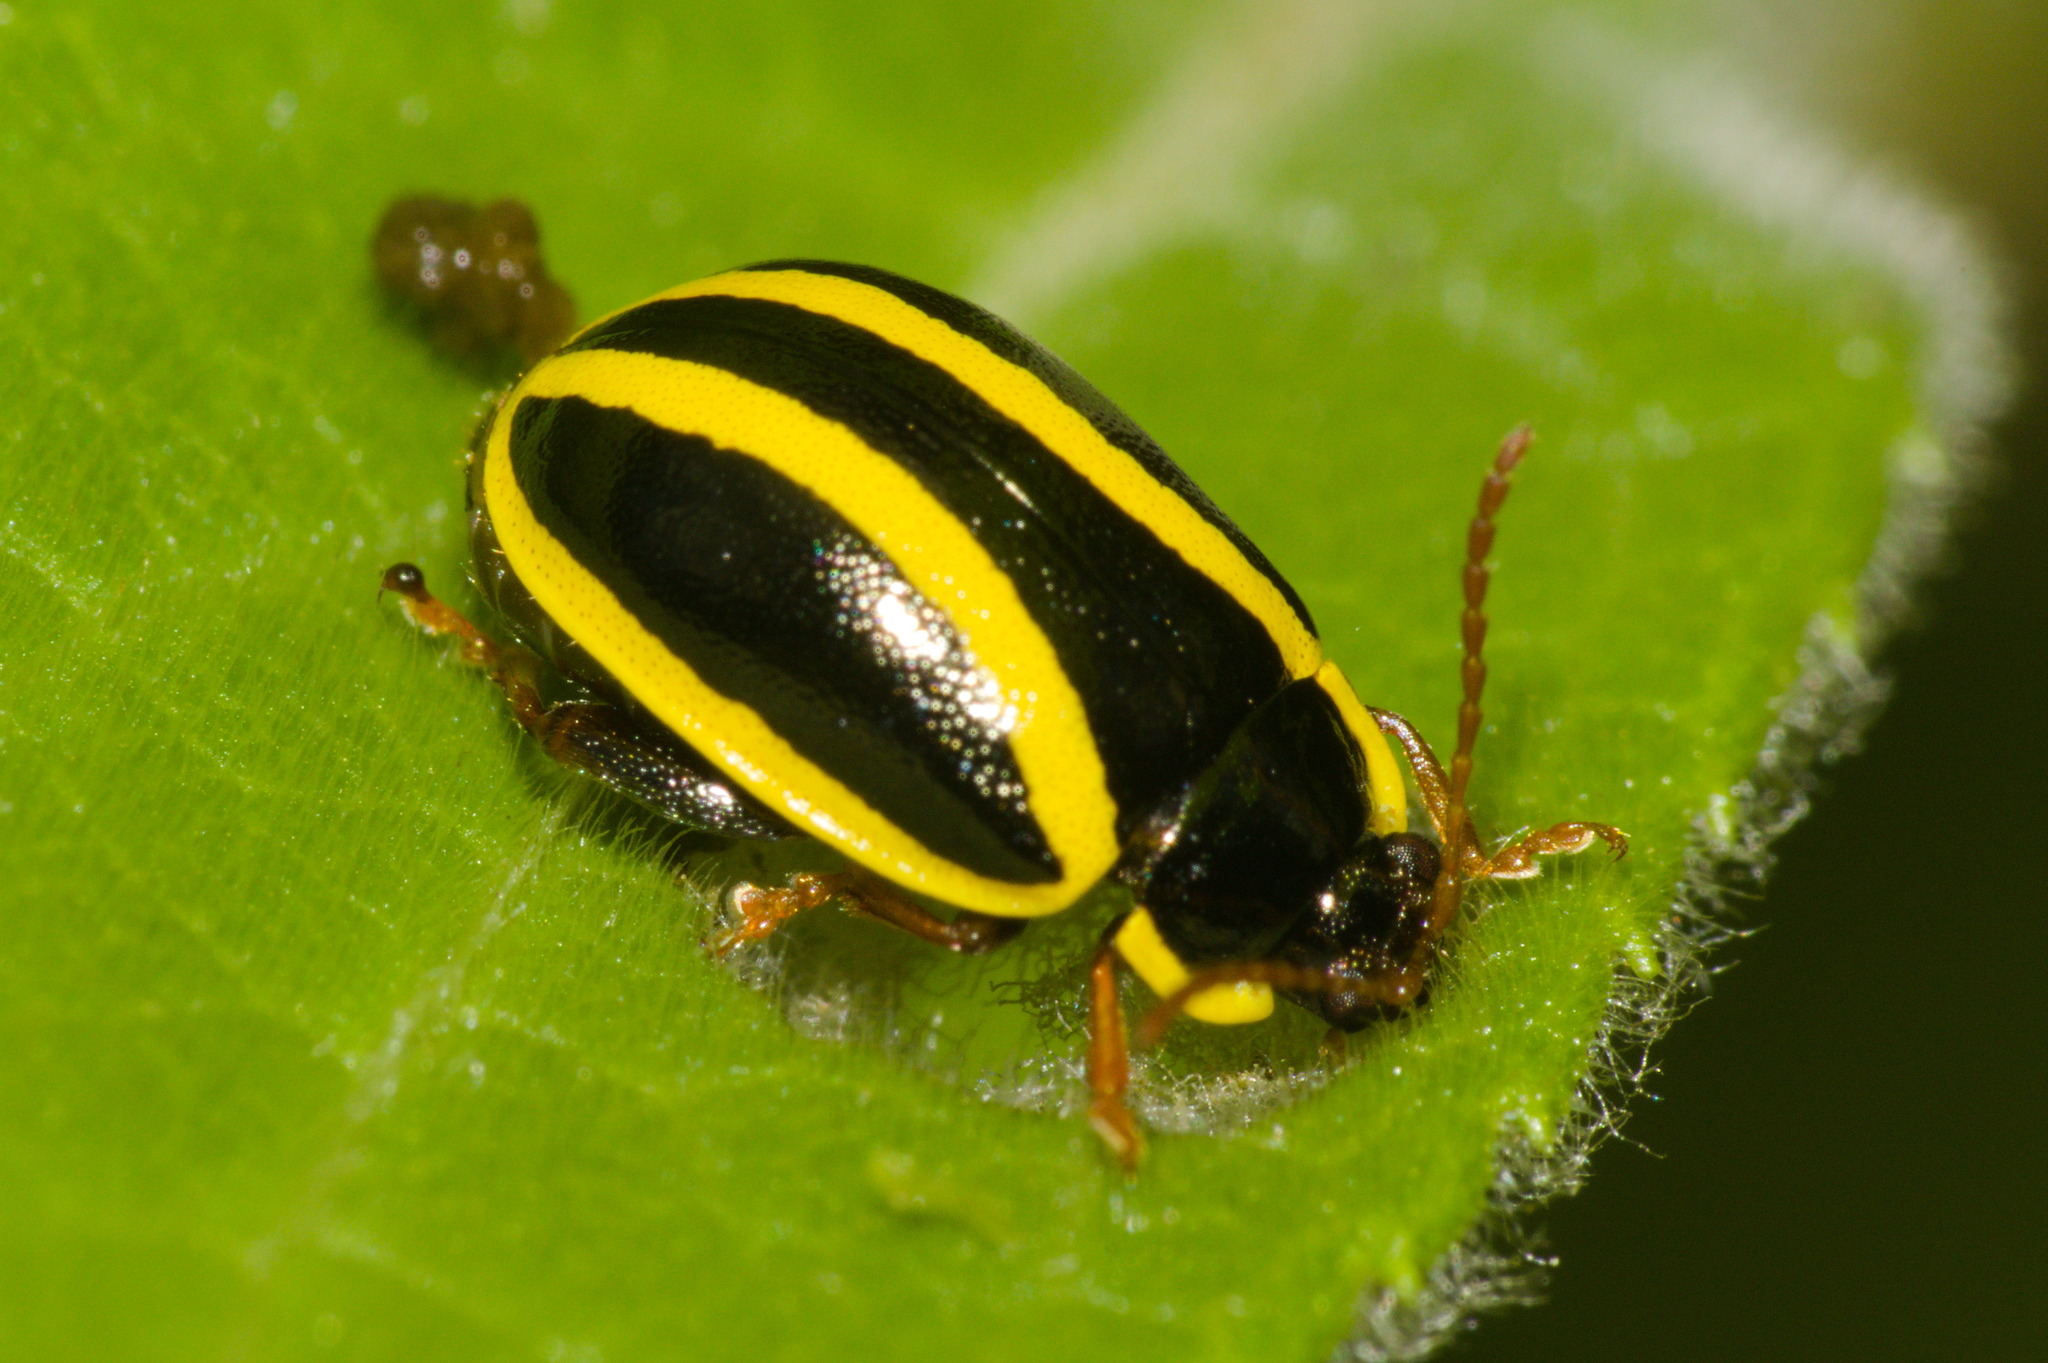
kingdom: Animalia
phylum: Arthropoda
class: Insecta
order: Coleoptera
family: Chrysomelidae
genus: Alagoasa
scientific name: Alagoasa
